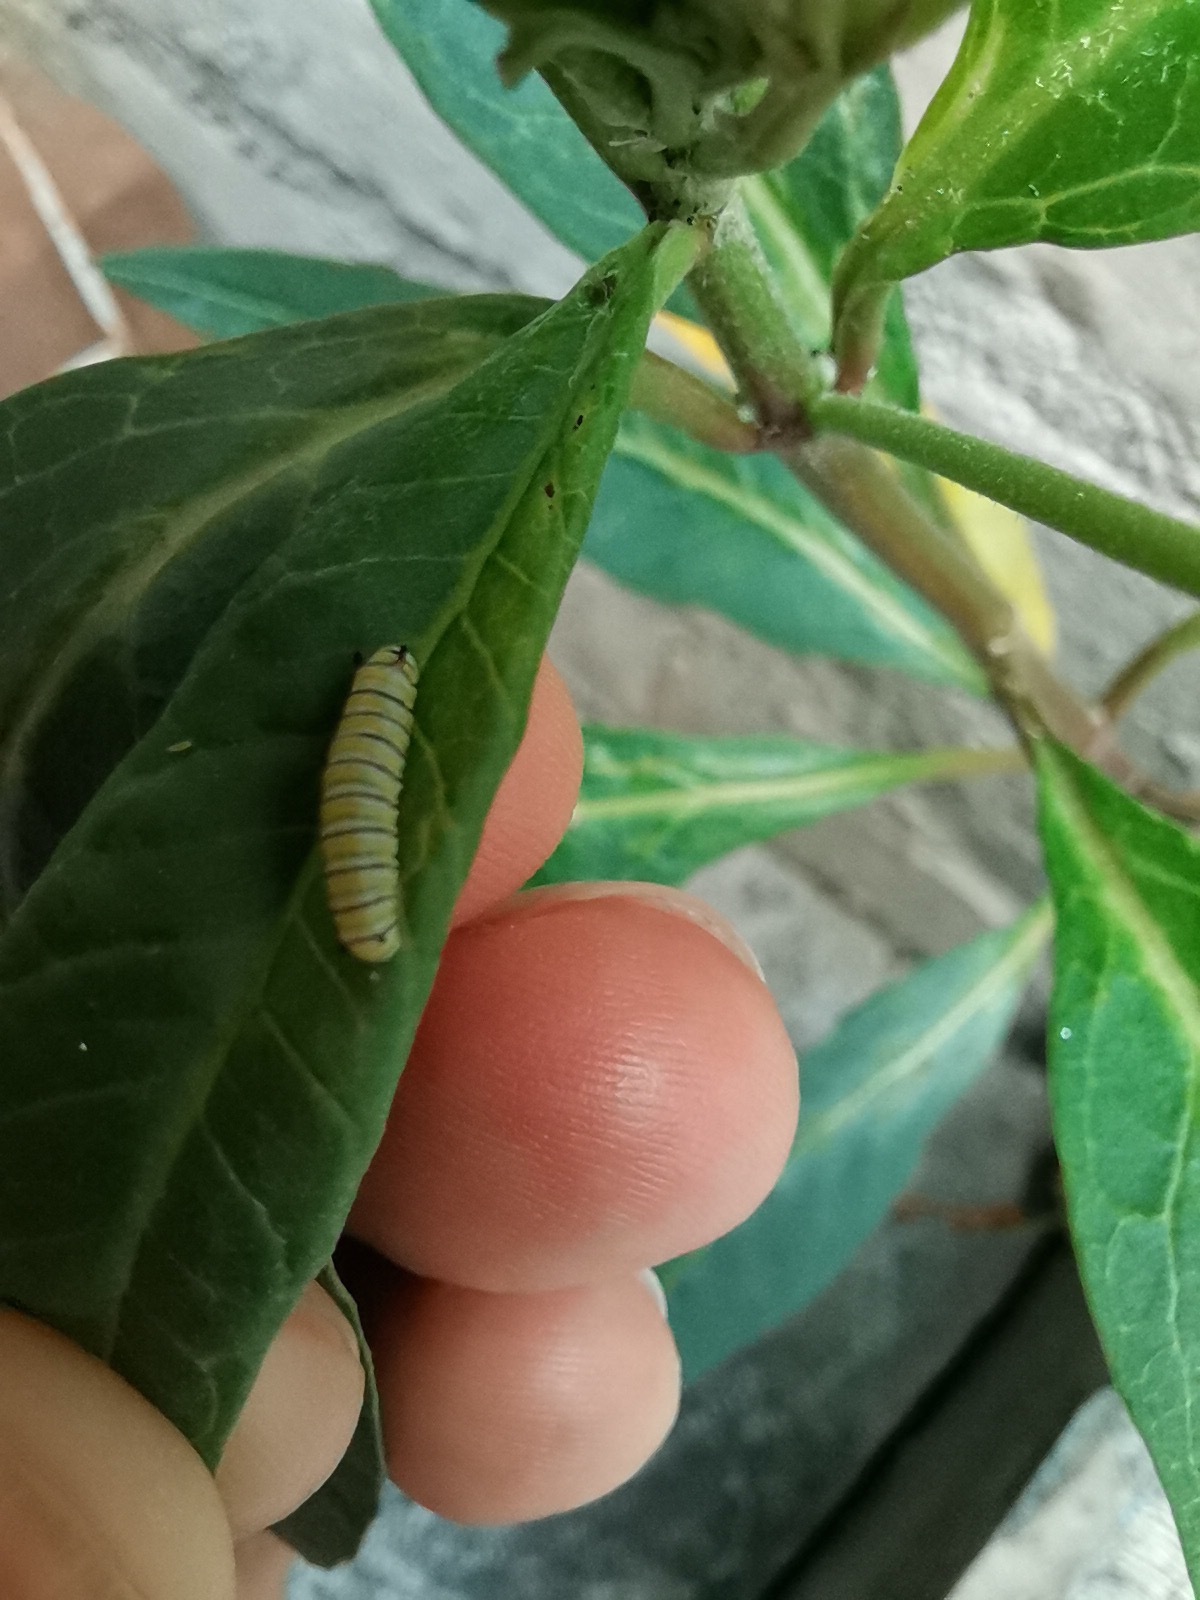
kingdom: Animalia
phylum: Arthropoda
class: Insecta
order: Lepidoptera
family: Nymphalidae
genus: Danaus
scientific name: Danaus plexippus
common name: Monarch
